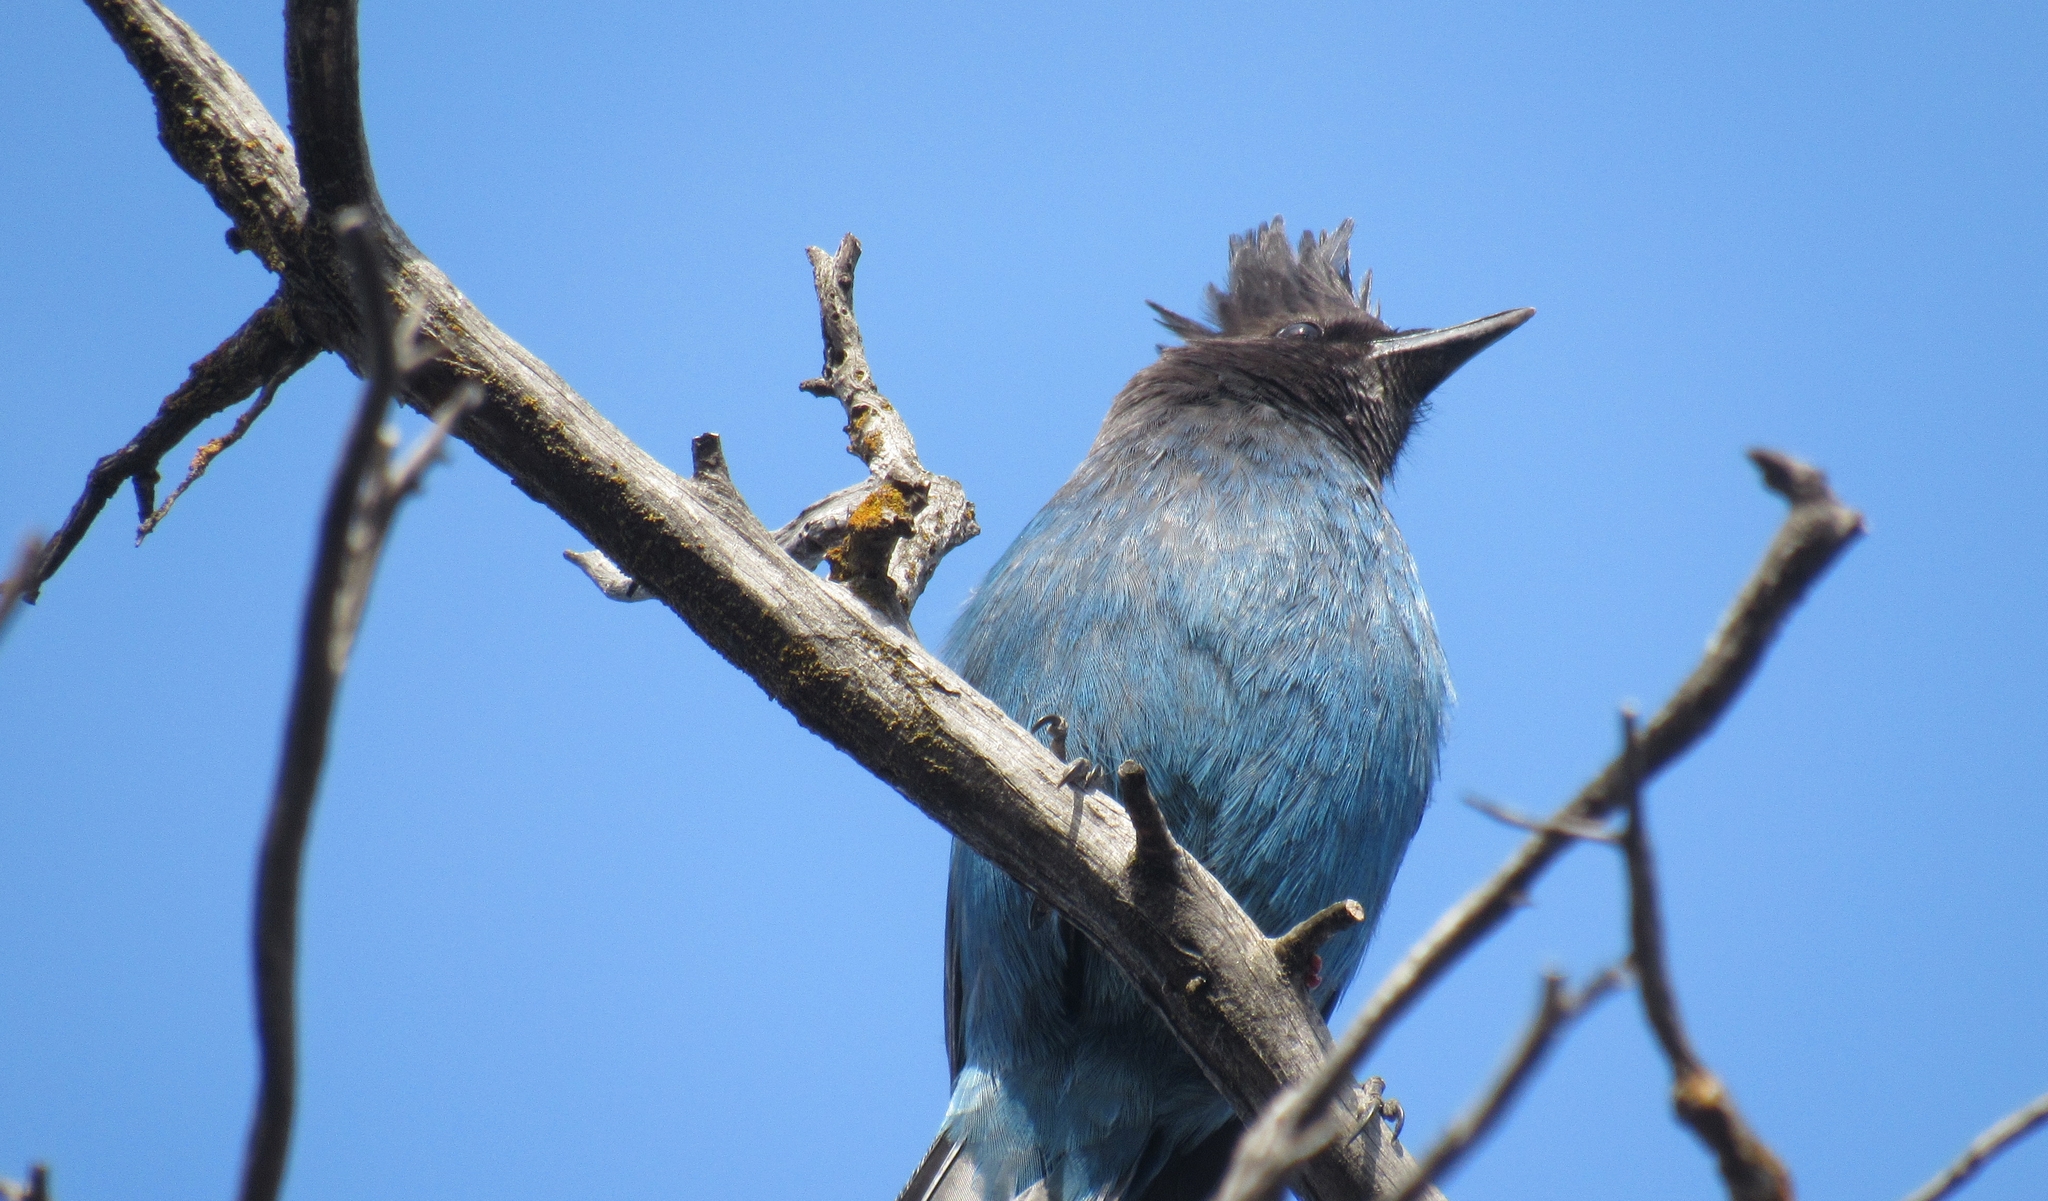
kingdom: Animalia
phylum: Chordata
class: Aves
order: Passeriformes
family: Corvidae
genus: Cyanocitta
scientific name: Cyanocitta stelleri
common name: Steller's jay
